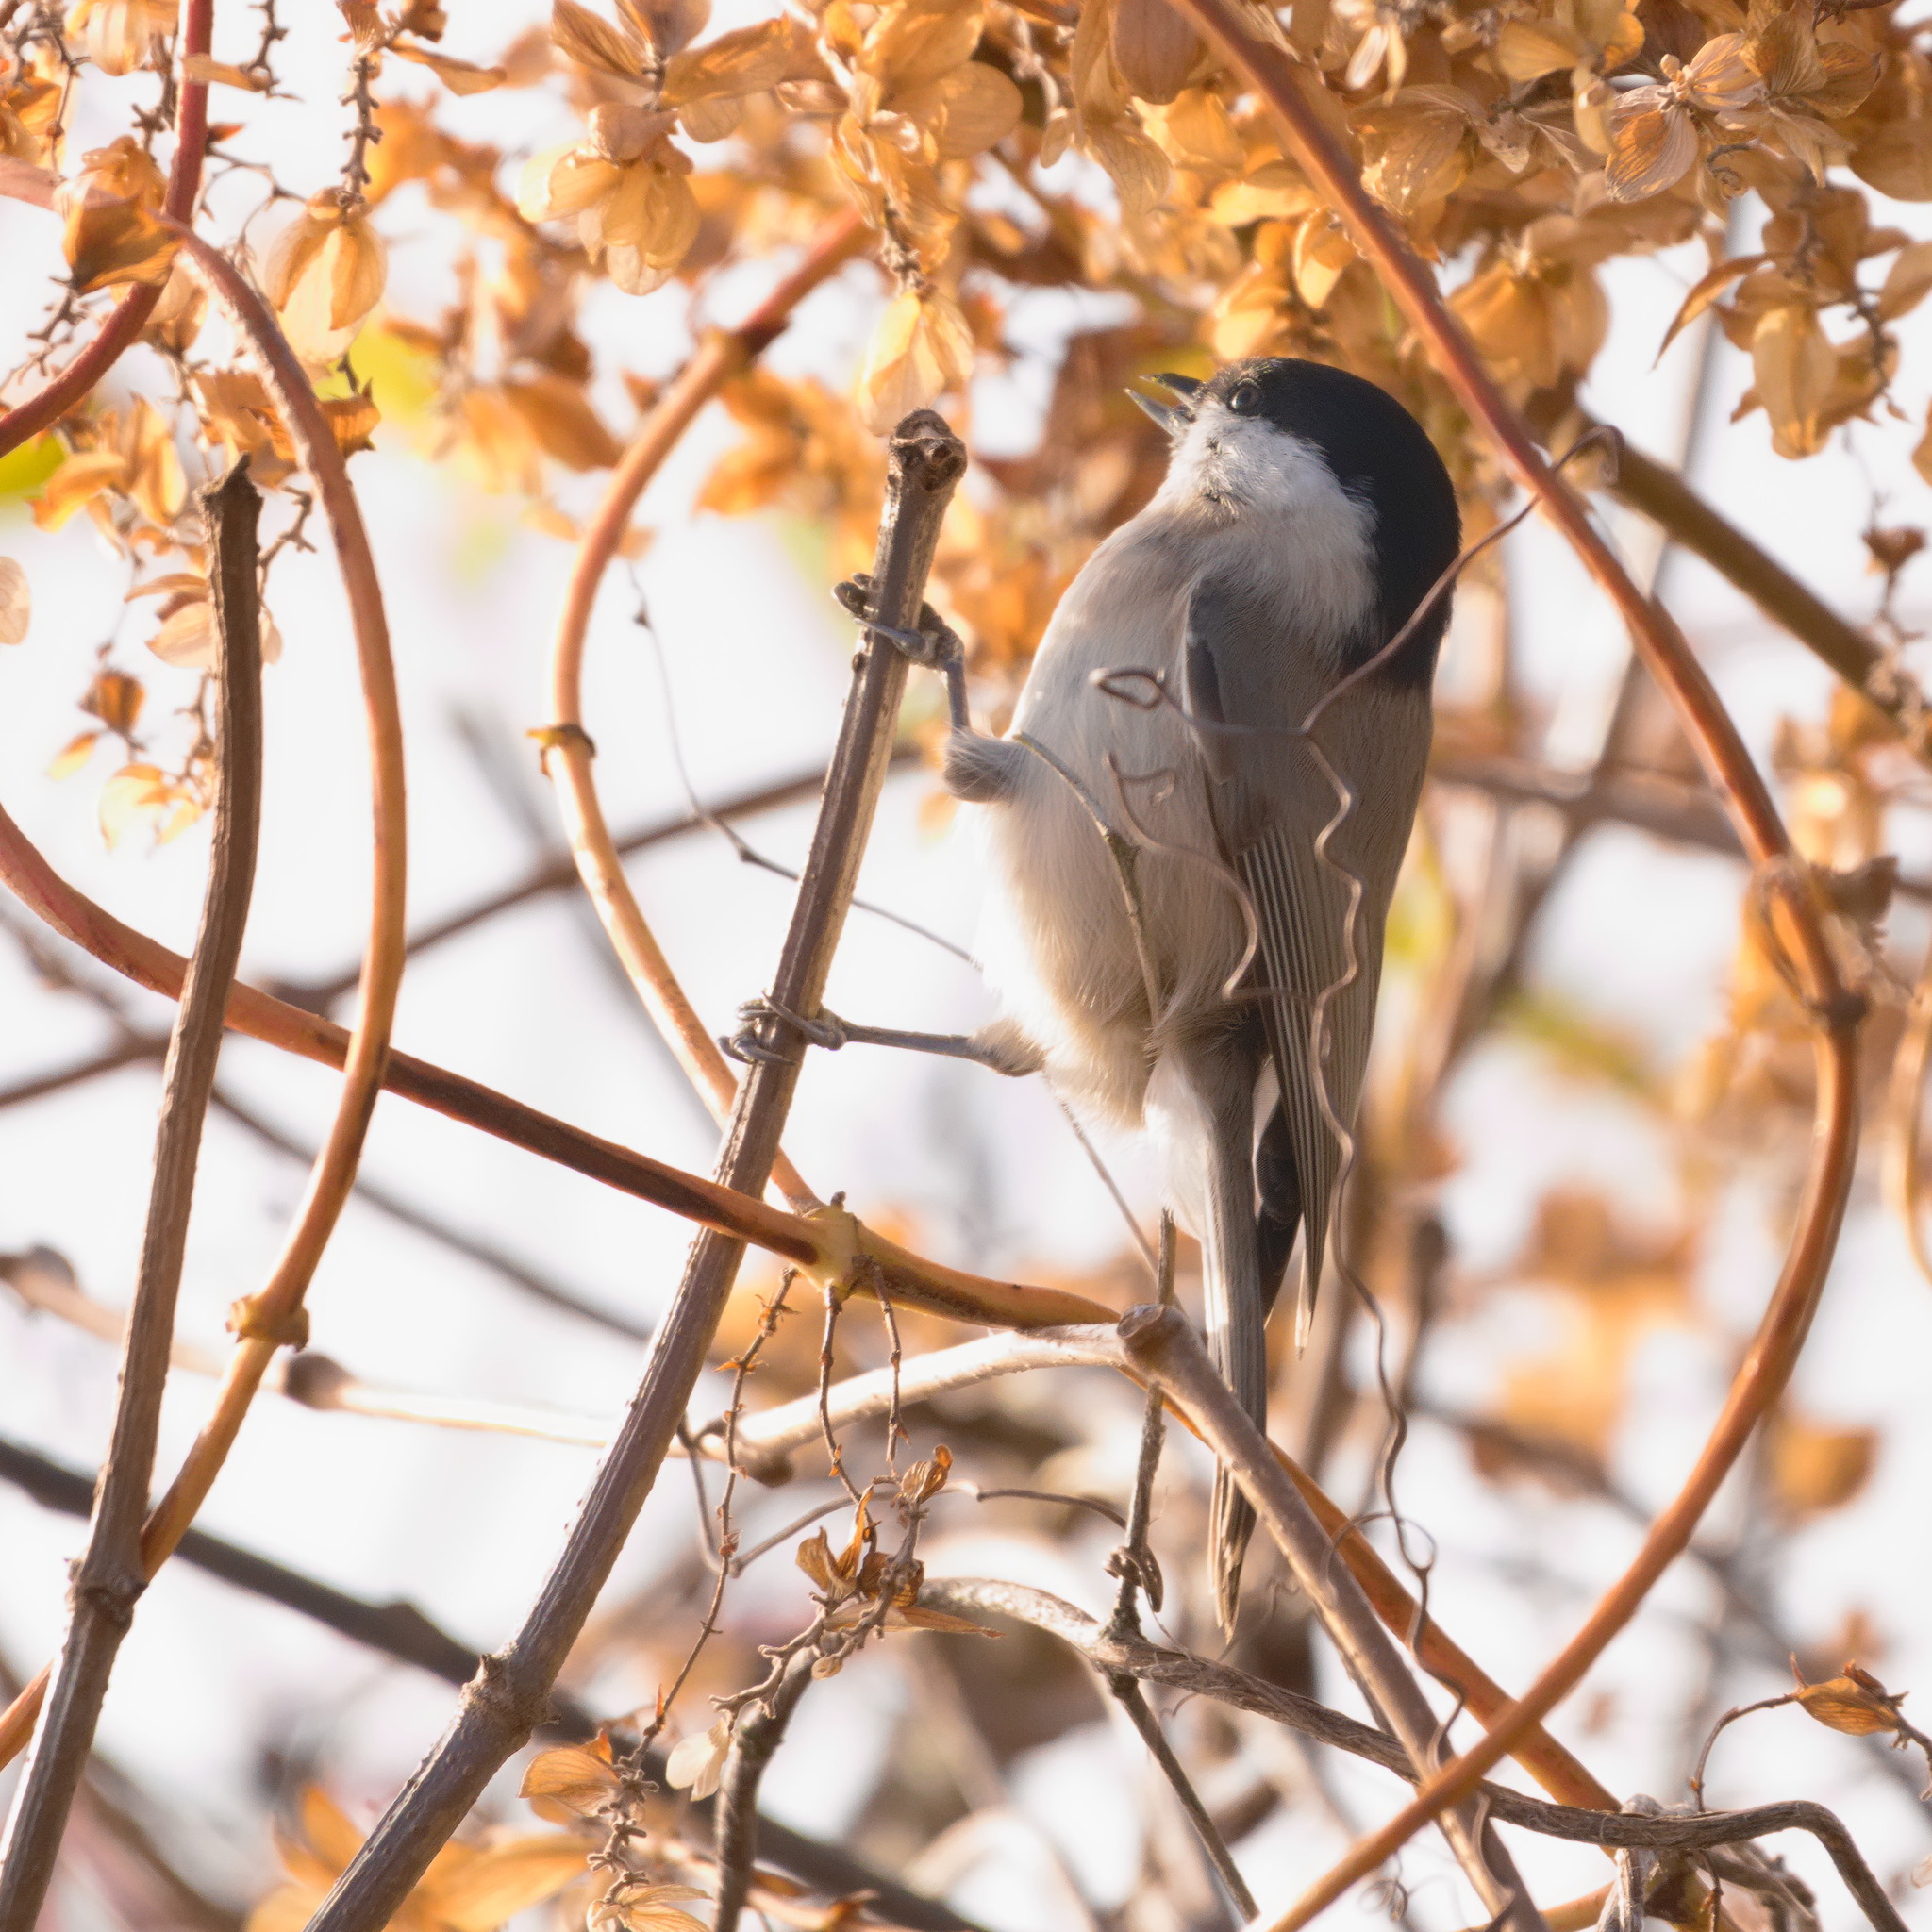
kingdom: Animalia
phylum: Chordata
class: Aves
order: Passeriformes
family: Paridae
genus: Poecile
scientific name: Poecile palustris
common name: Marsh tit
